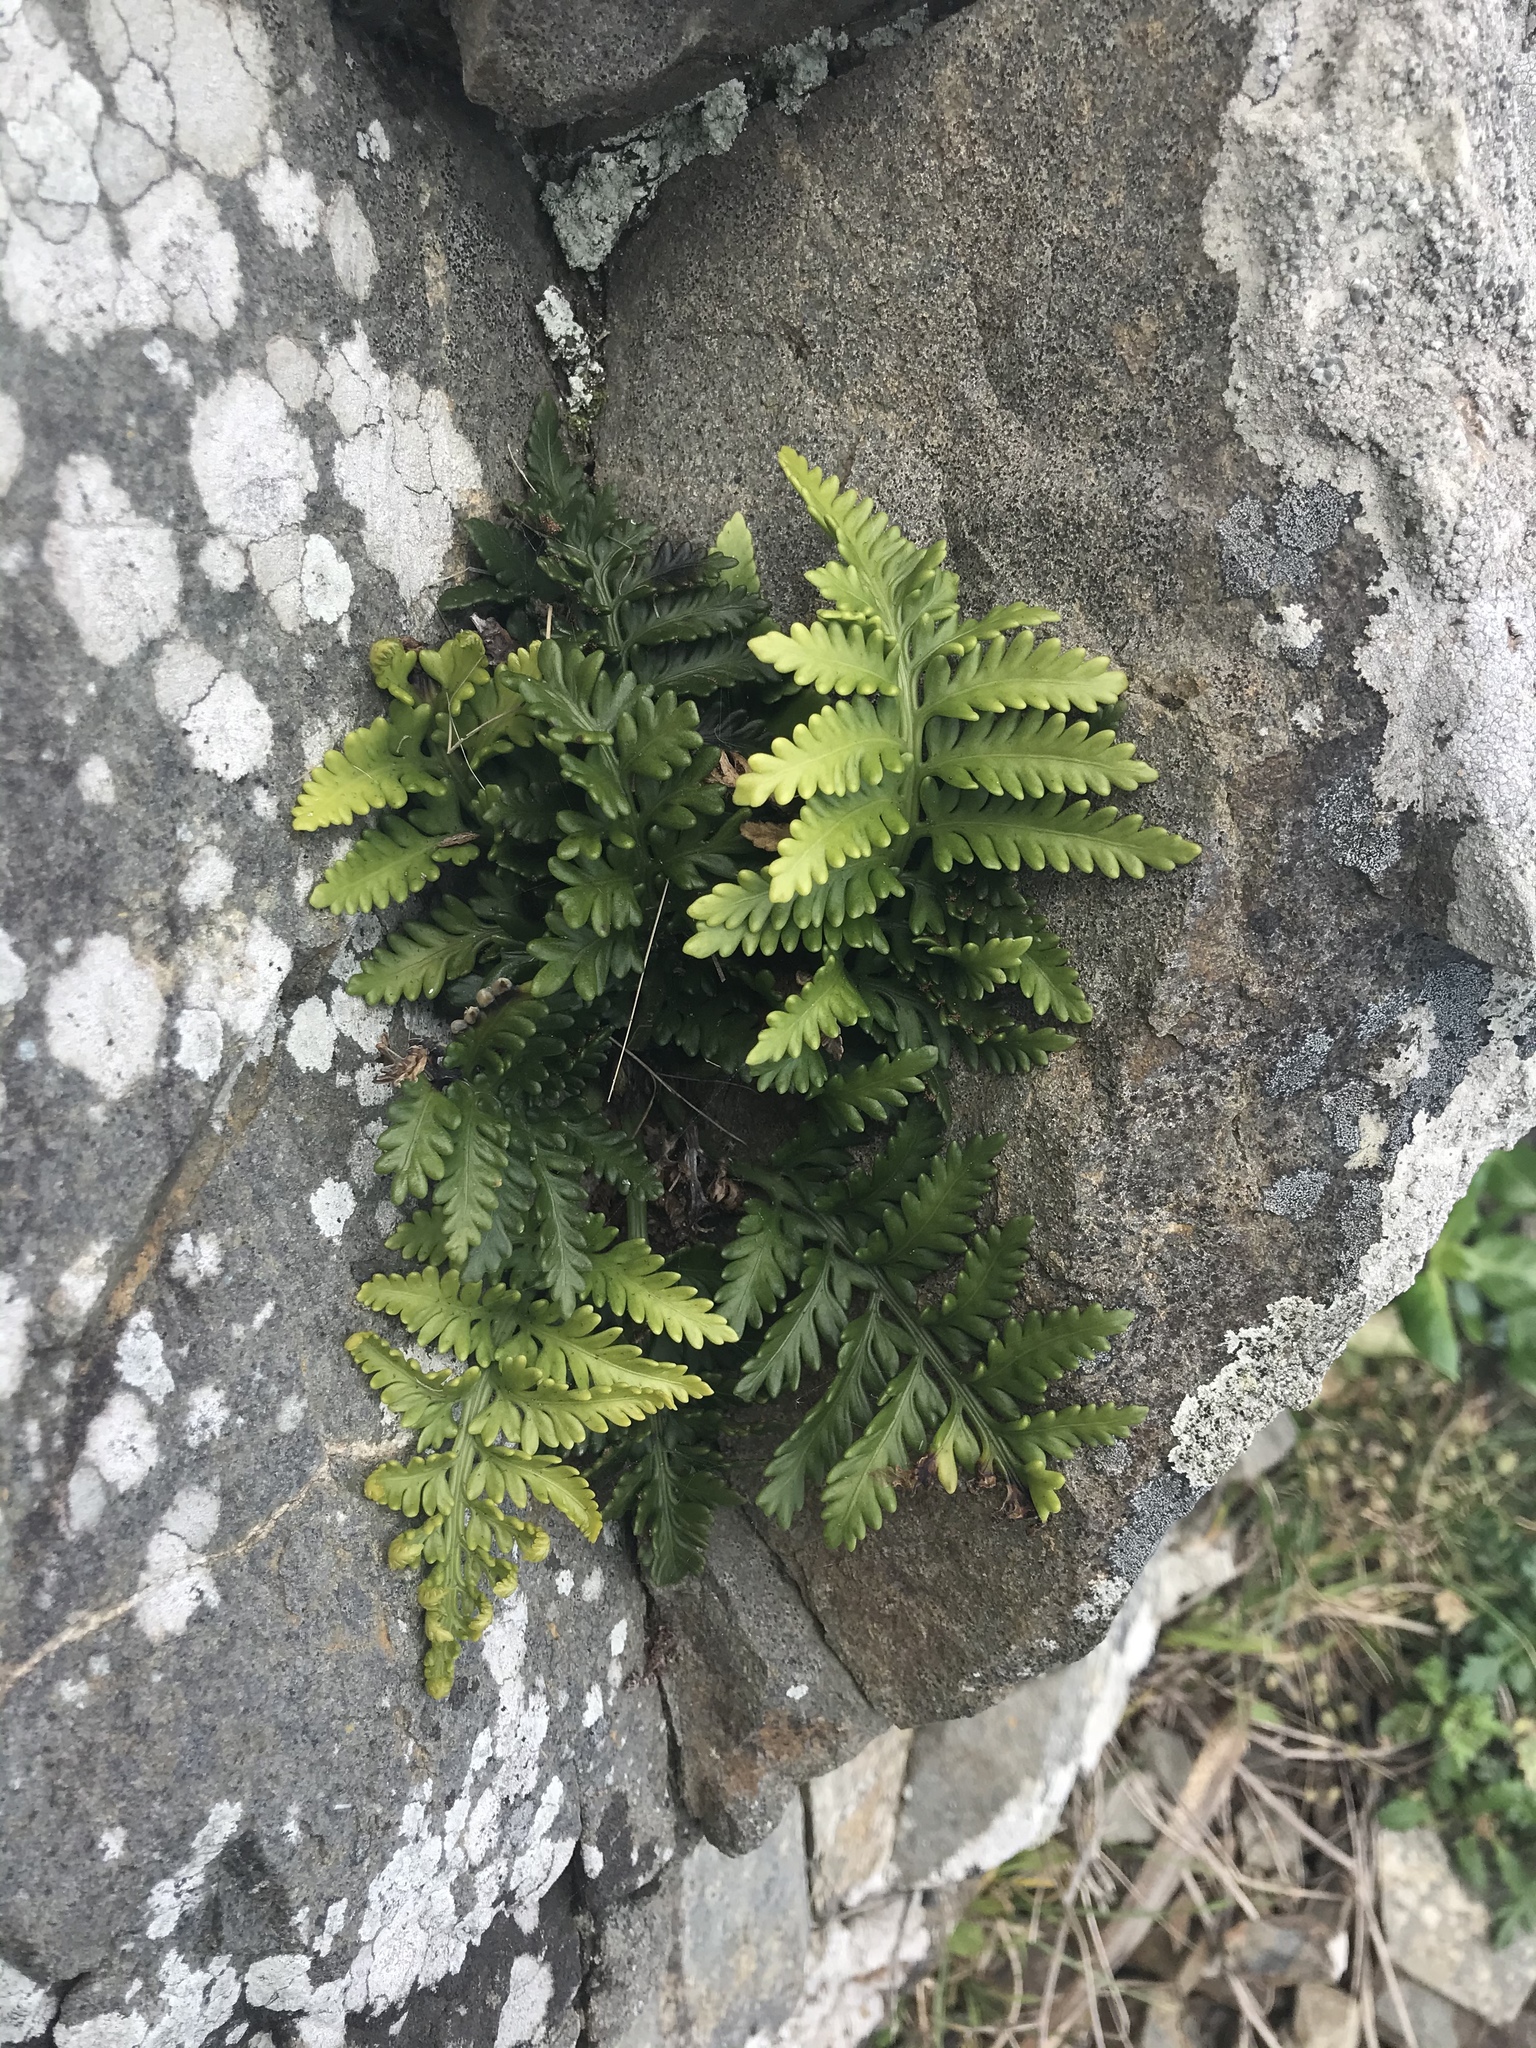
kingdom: Plantae
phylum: Tracheophyta
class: Polypodiopsida
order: Polypodiales
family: Aspleniaceae
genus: Asplenium
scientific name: Asplenium appendiculatum
